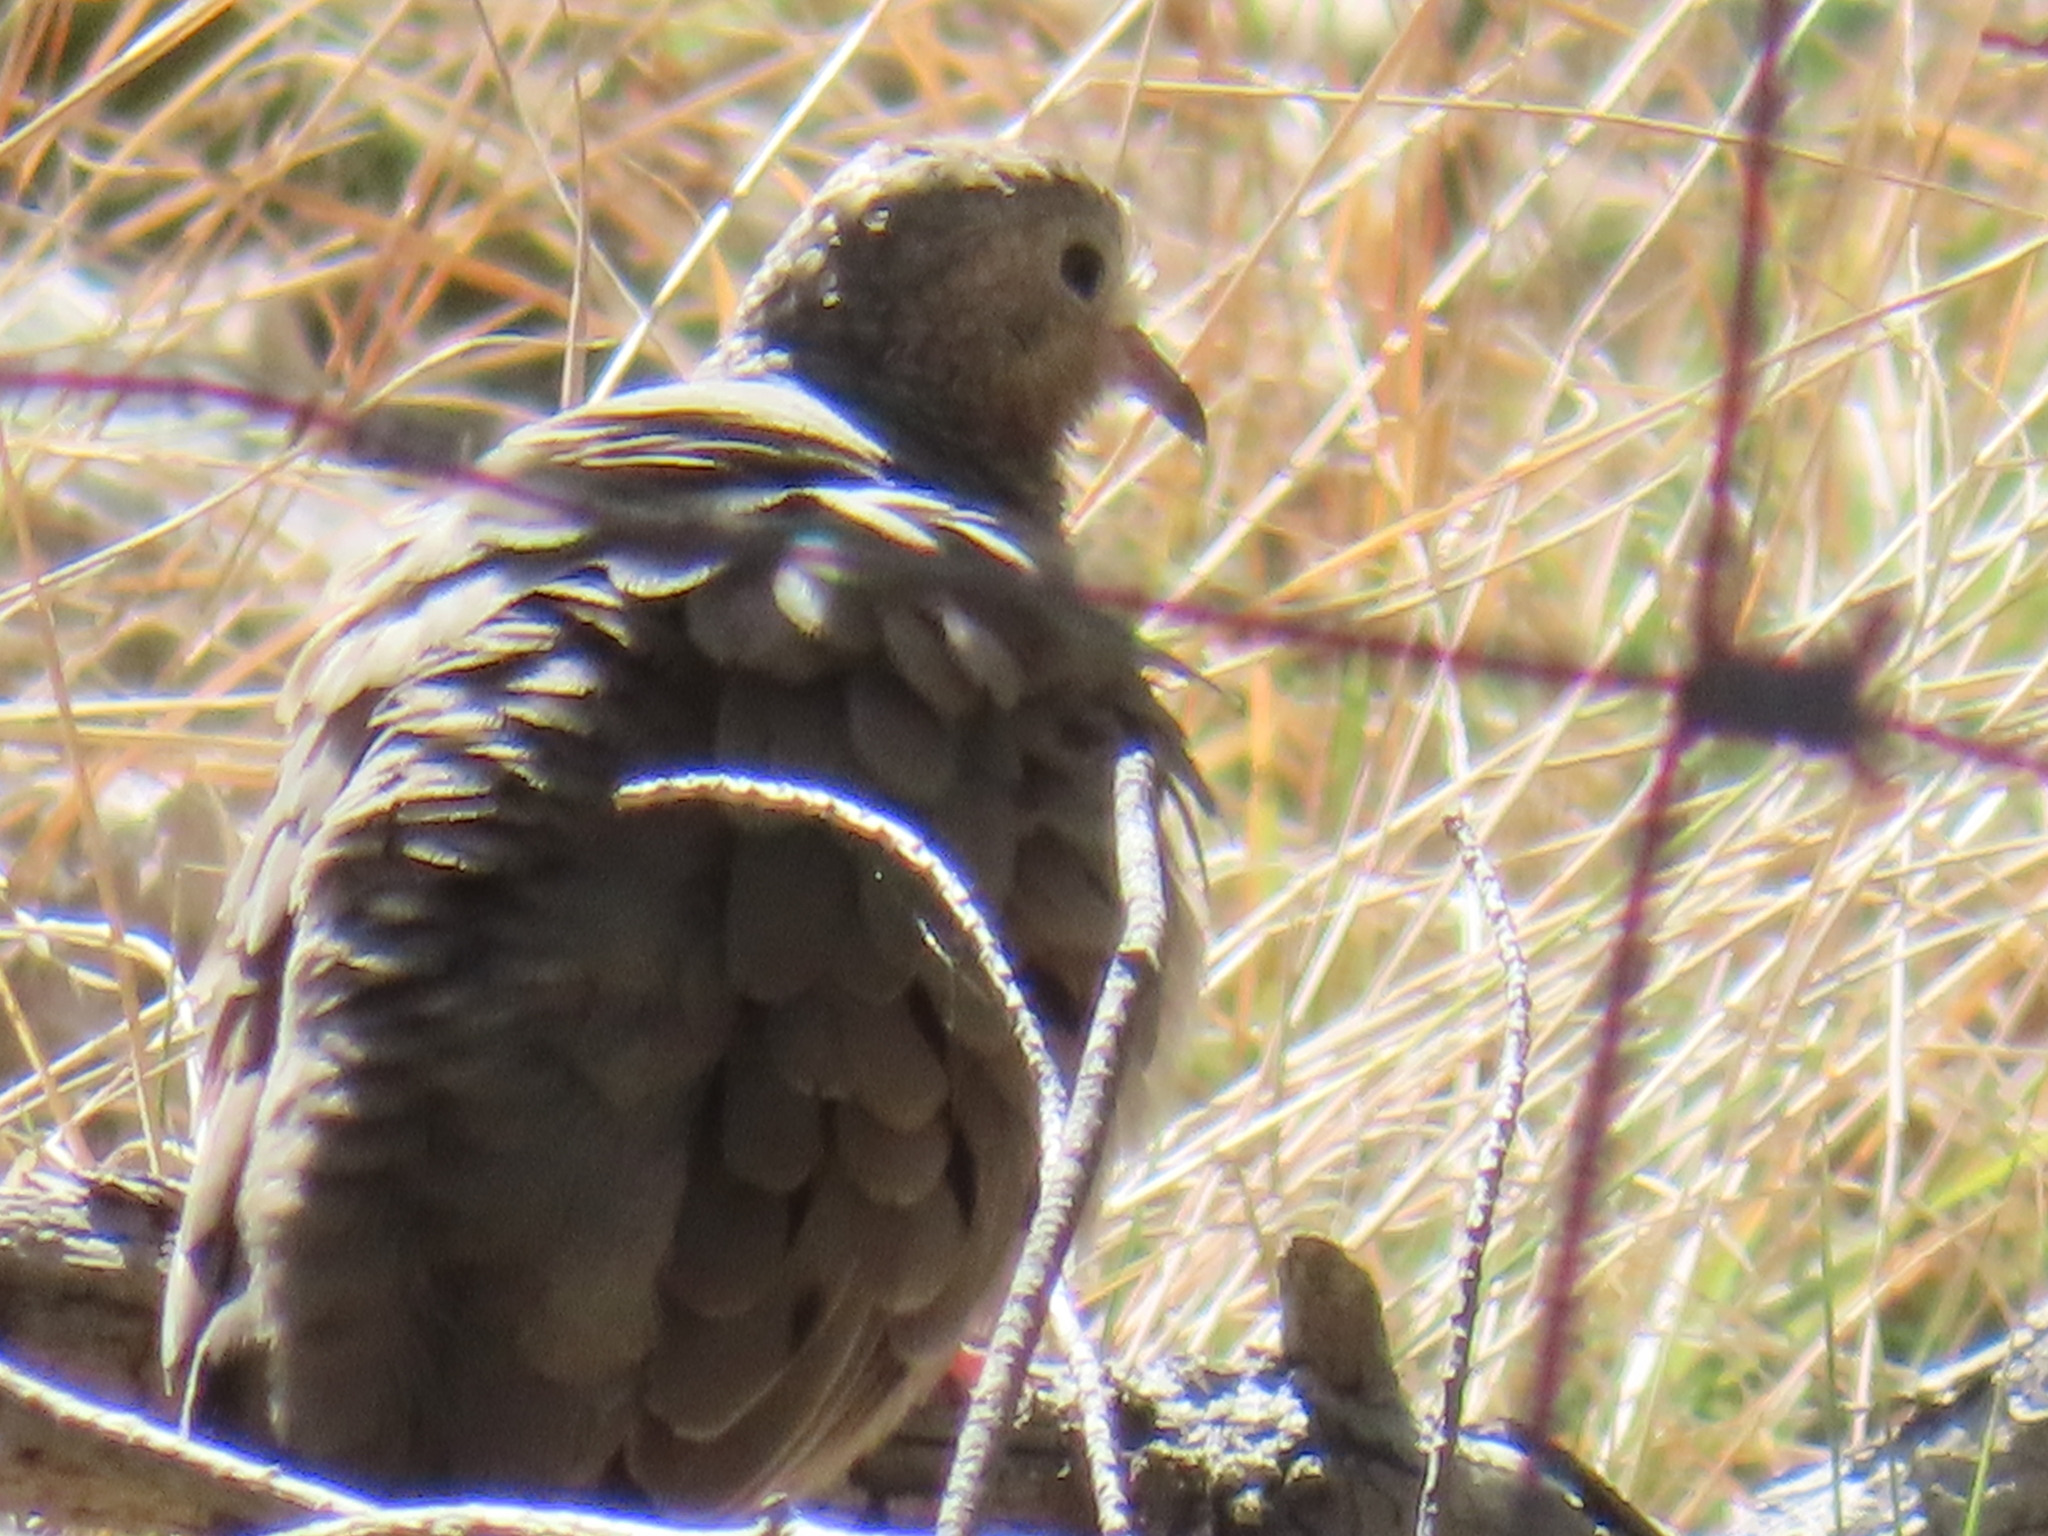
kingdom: Animalia
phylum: Chordata
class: Aves
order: Columbiformes
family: Columbidae
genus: Columbina
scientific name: Columbina passerina
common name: Common ground-dove
